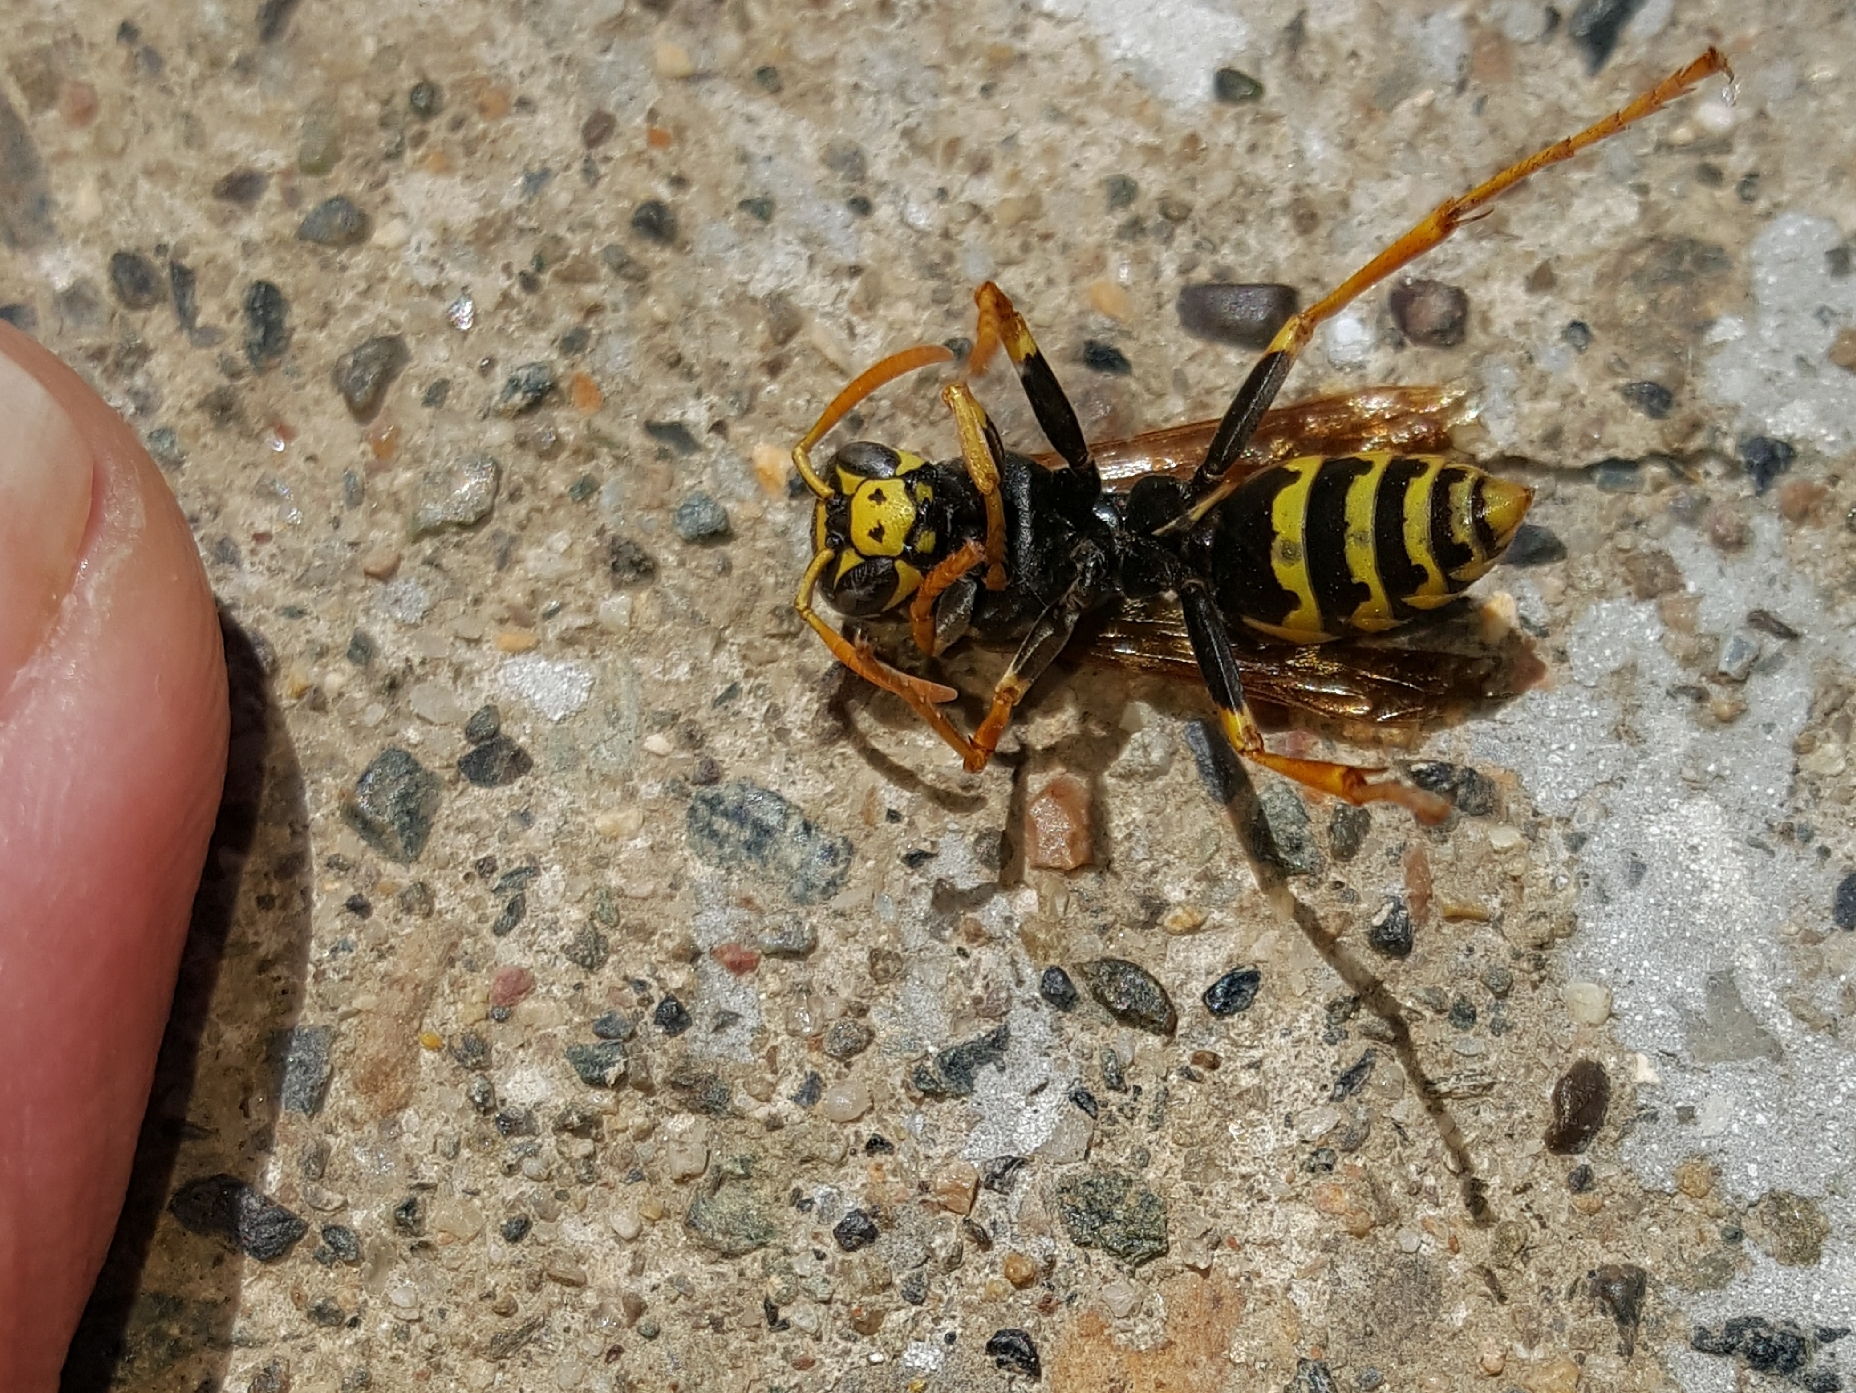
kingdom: Animalia
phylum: Arthropoda
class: Insecta
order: Hymenoptera
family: Eumenidae
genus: Polistes
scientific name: Polistes dominula
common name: Paper wasp
